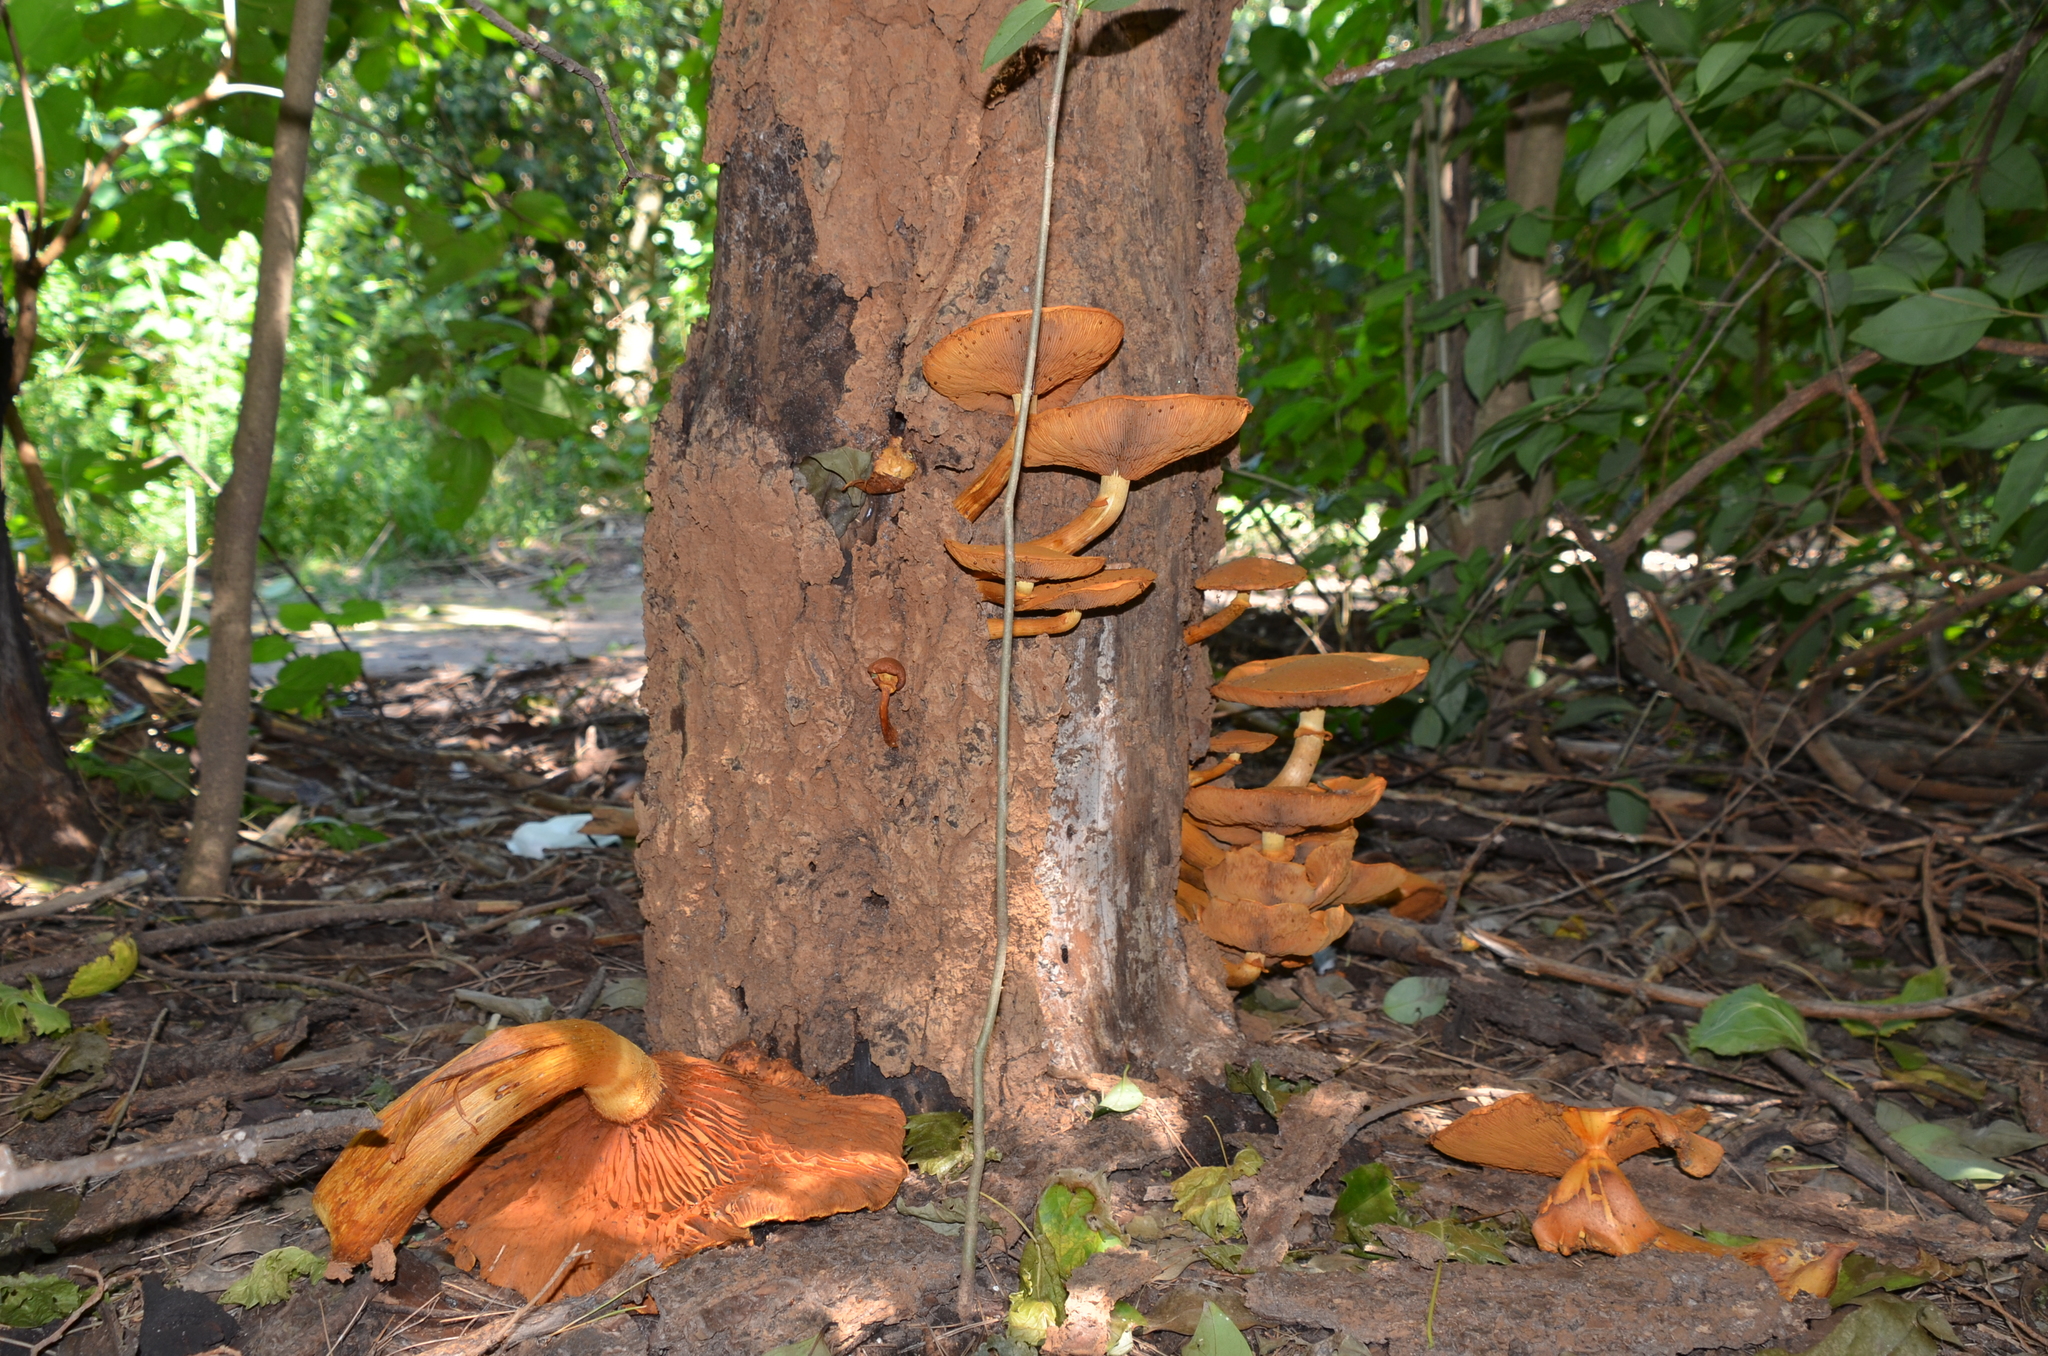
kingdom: Fungi
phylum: Basidiomycota
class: Agaricomycetes
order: Agaricales
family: Hymenogastraceae
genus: Gymnopilus
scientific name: Gymnopilus junonius
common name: Spectacular rustgill
